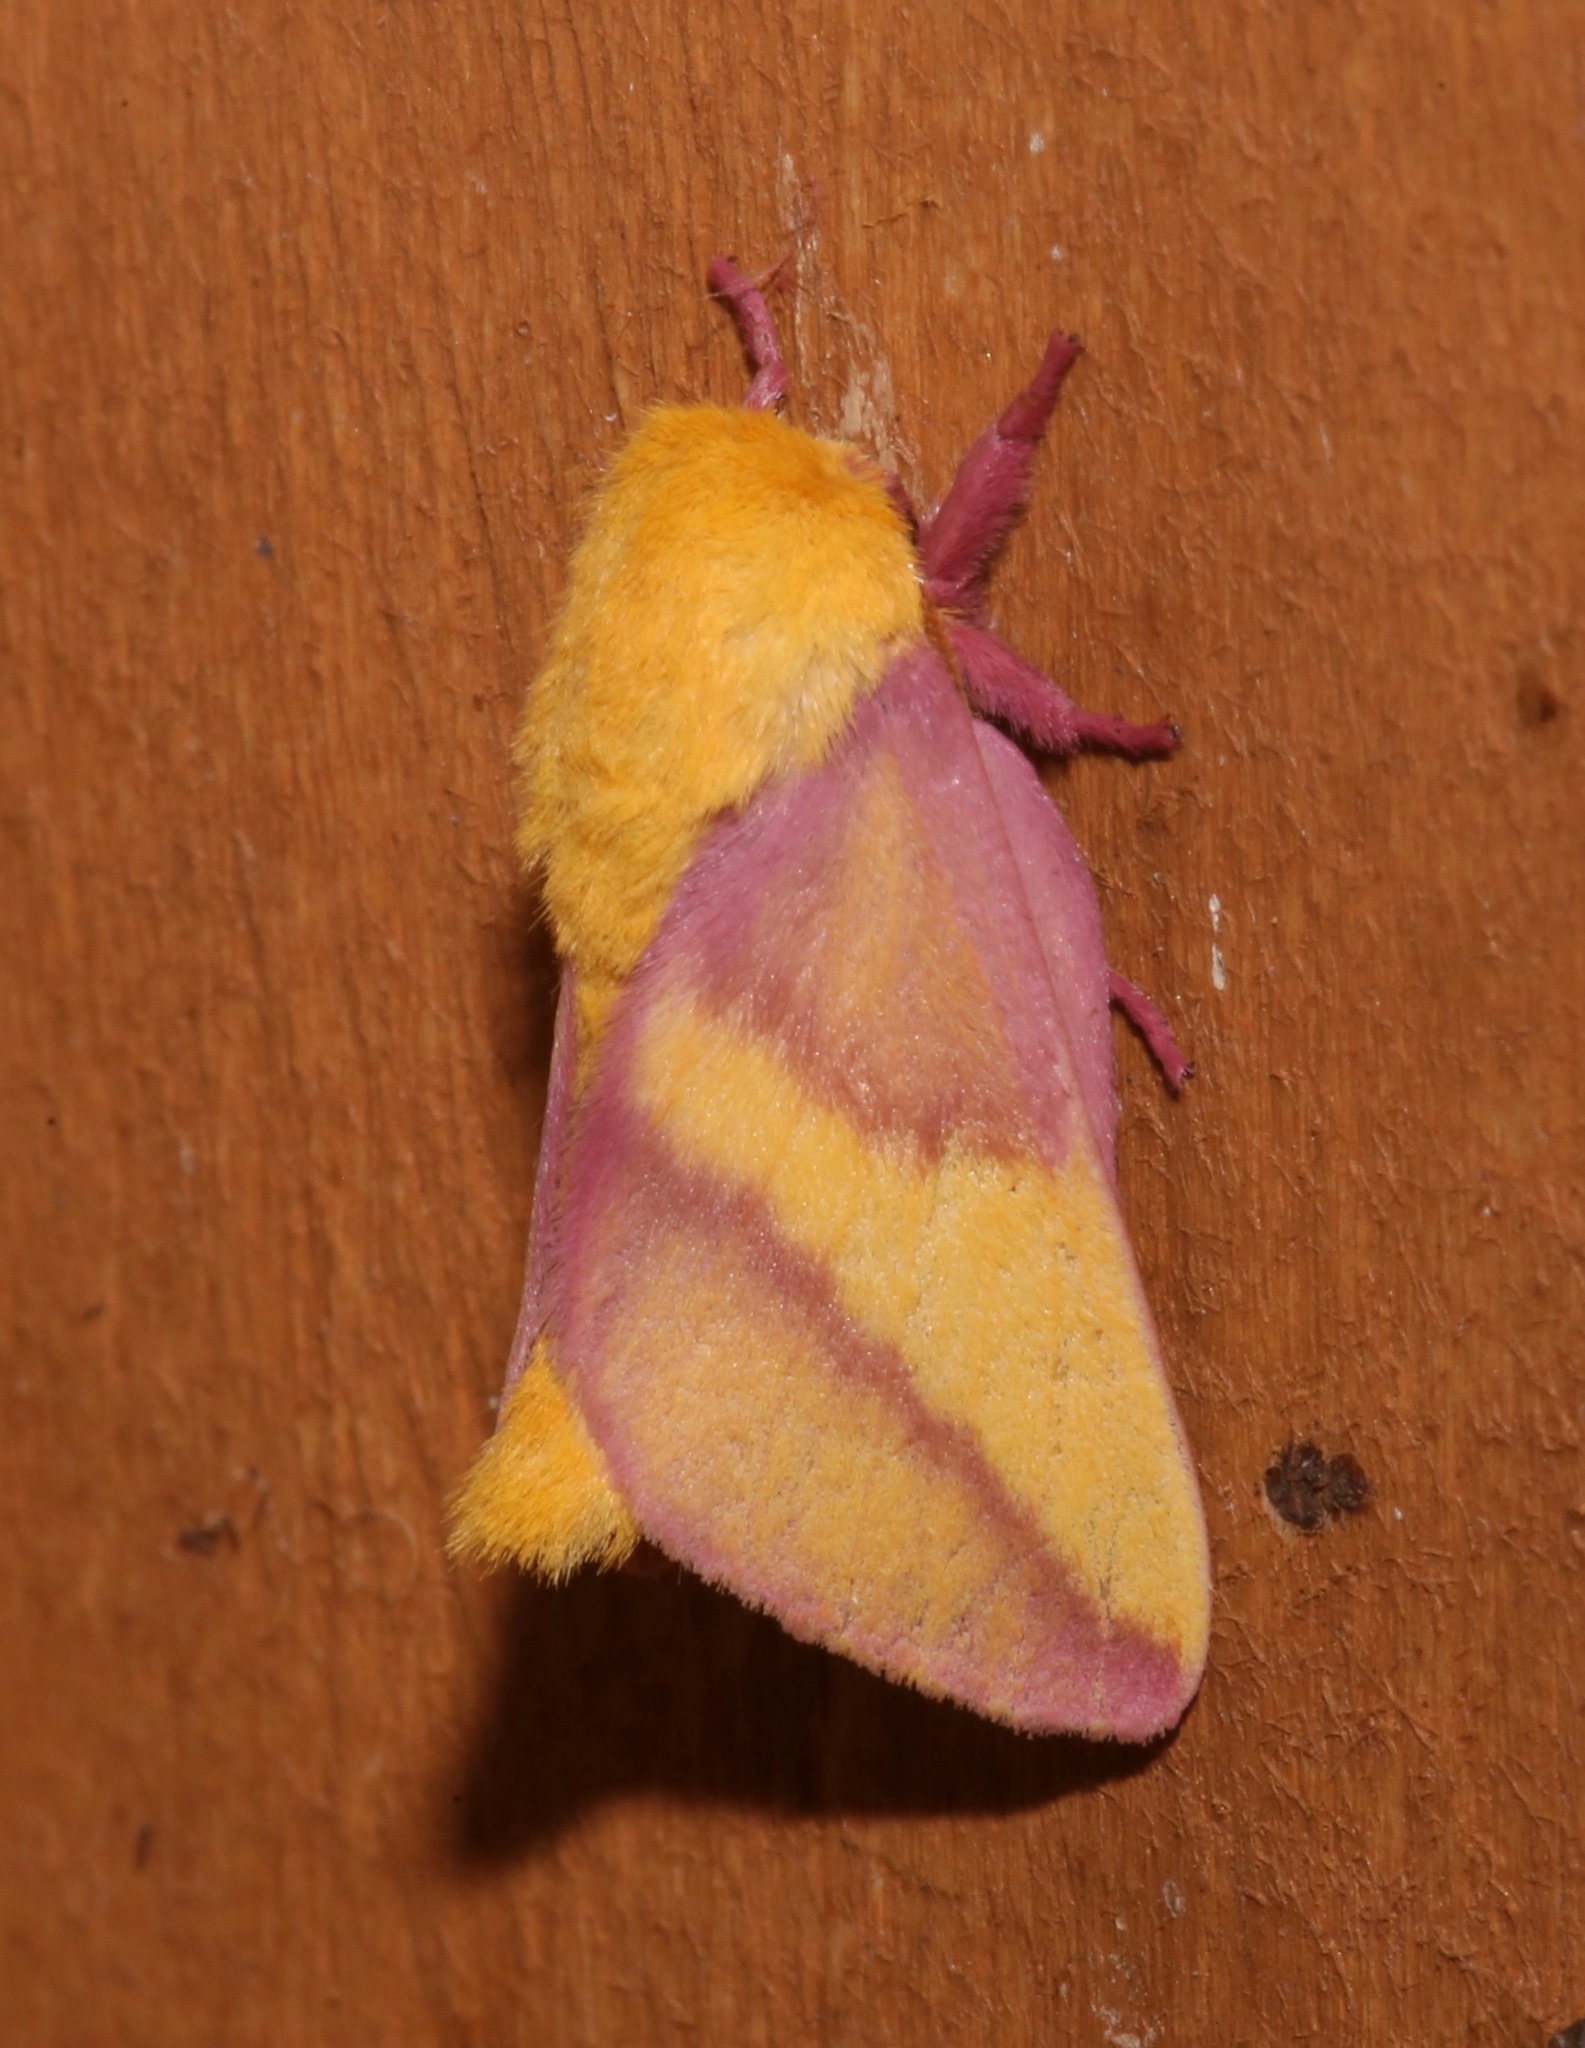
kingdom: Animalia
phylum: Arthropoda
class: Insecta
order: Lepidoptera
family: Saturniidae
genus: Dryocampa
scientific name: Dryocampa rubicunda
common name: Rosy maple moth
